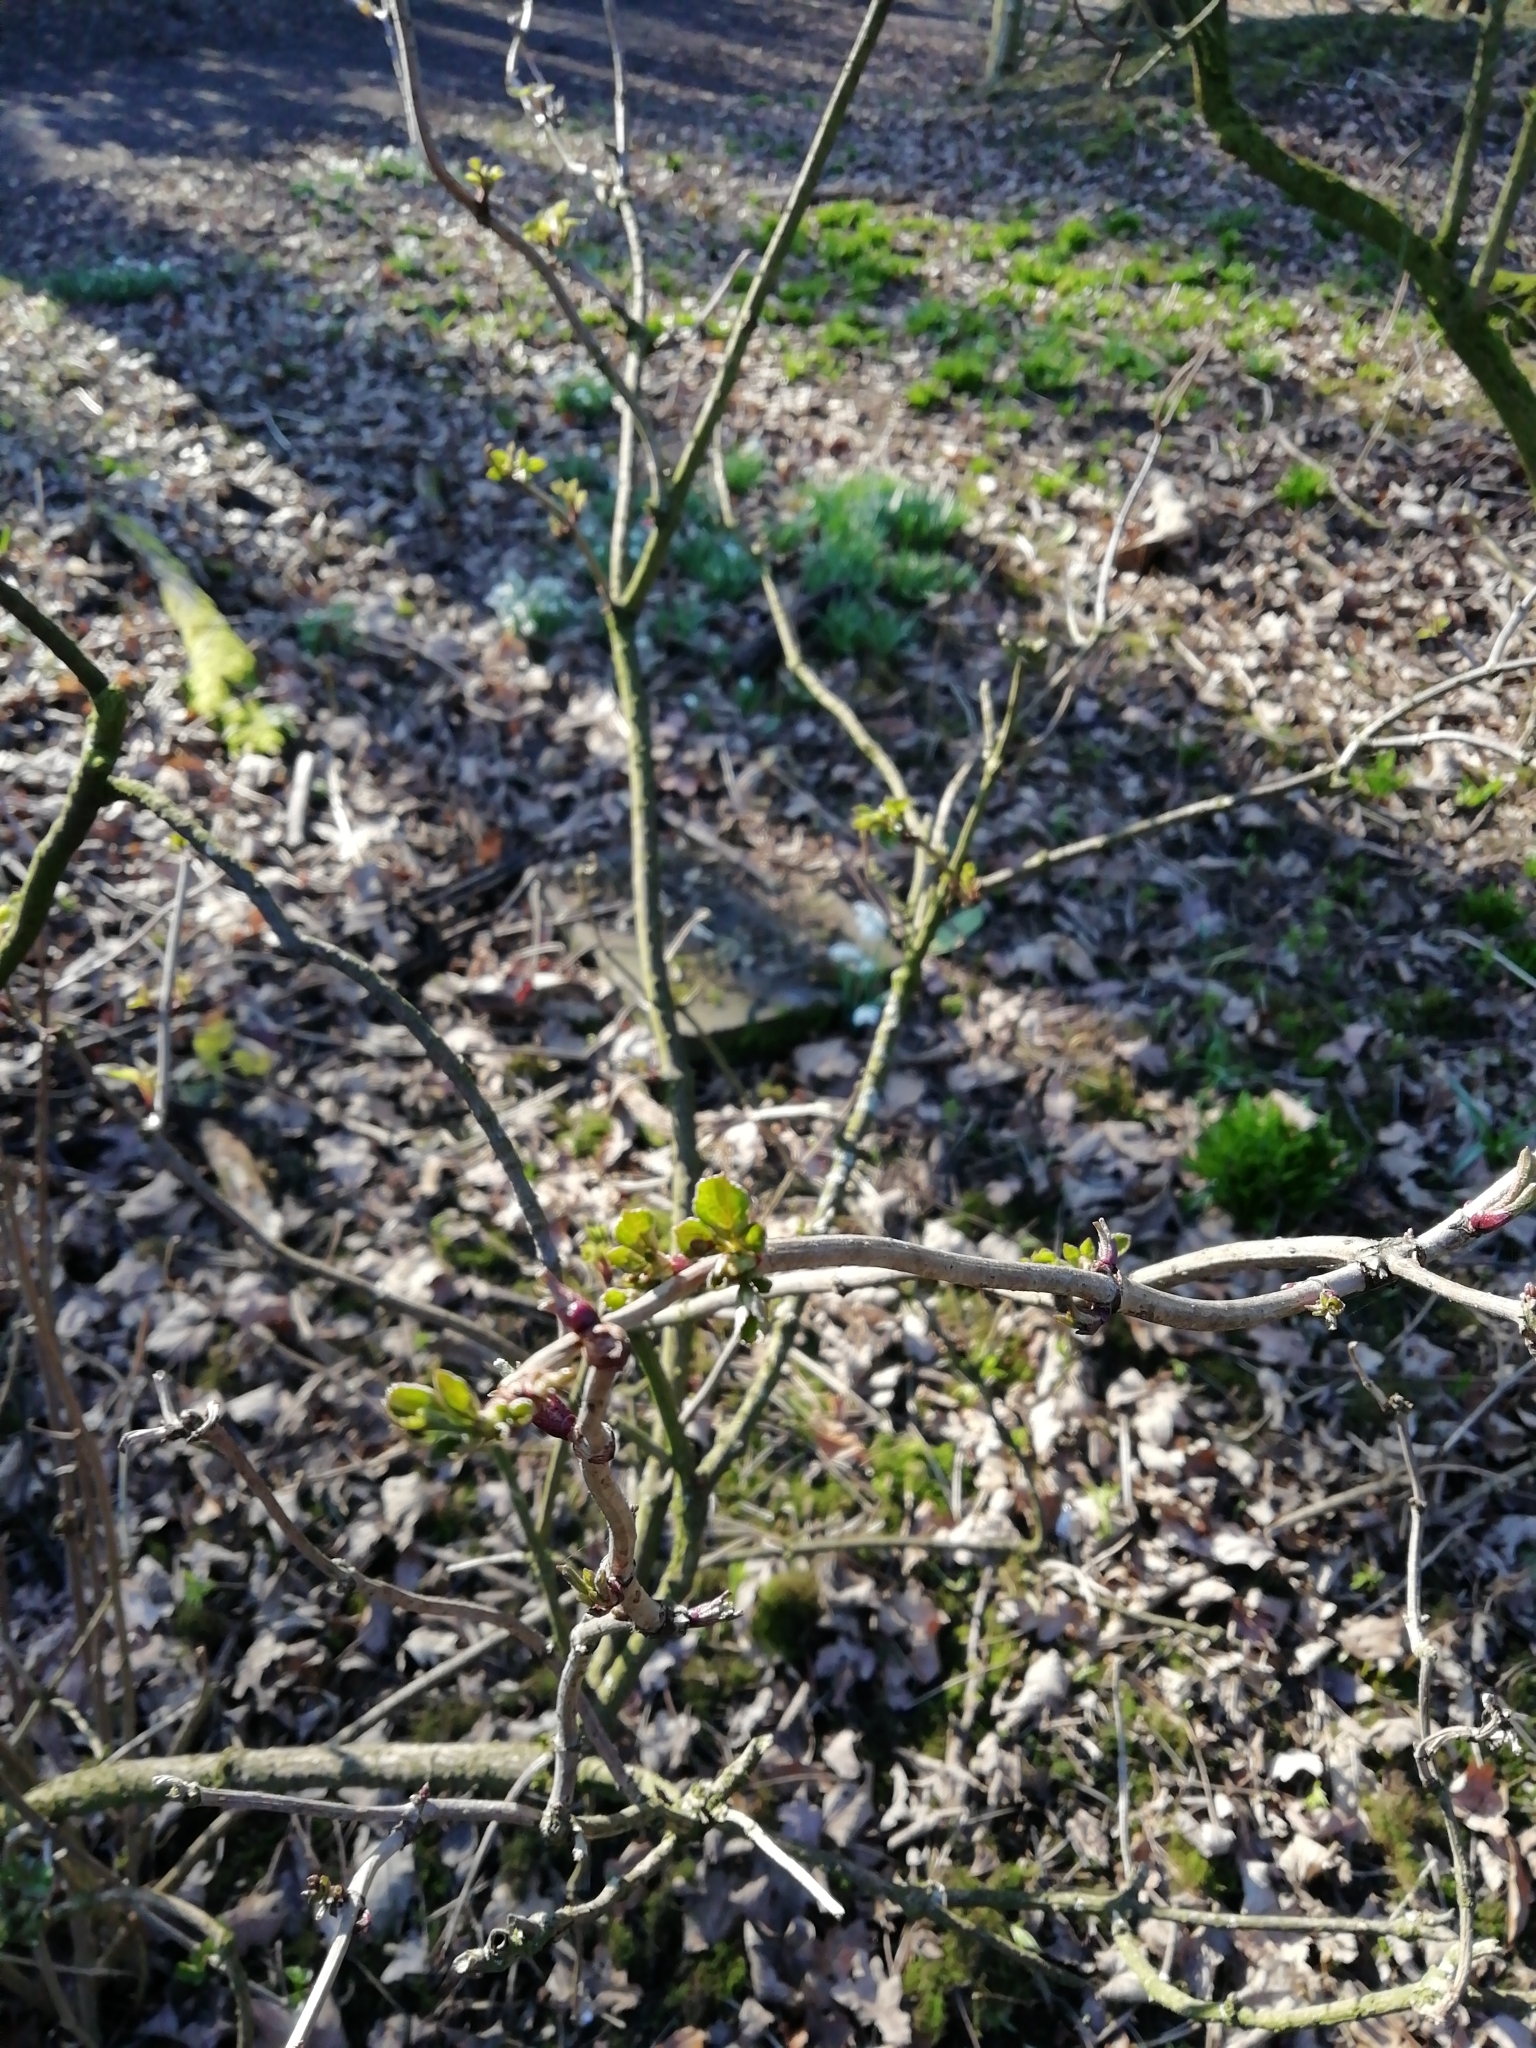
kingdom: Plantae
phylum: Tracheophyta
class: Magnoliopsida
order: Dipsacales
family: Viburnaceae
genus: Sambucus
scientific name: Sambucus nigra
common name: Elder
